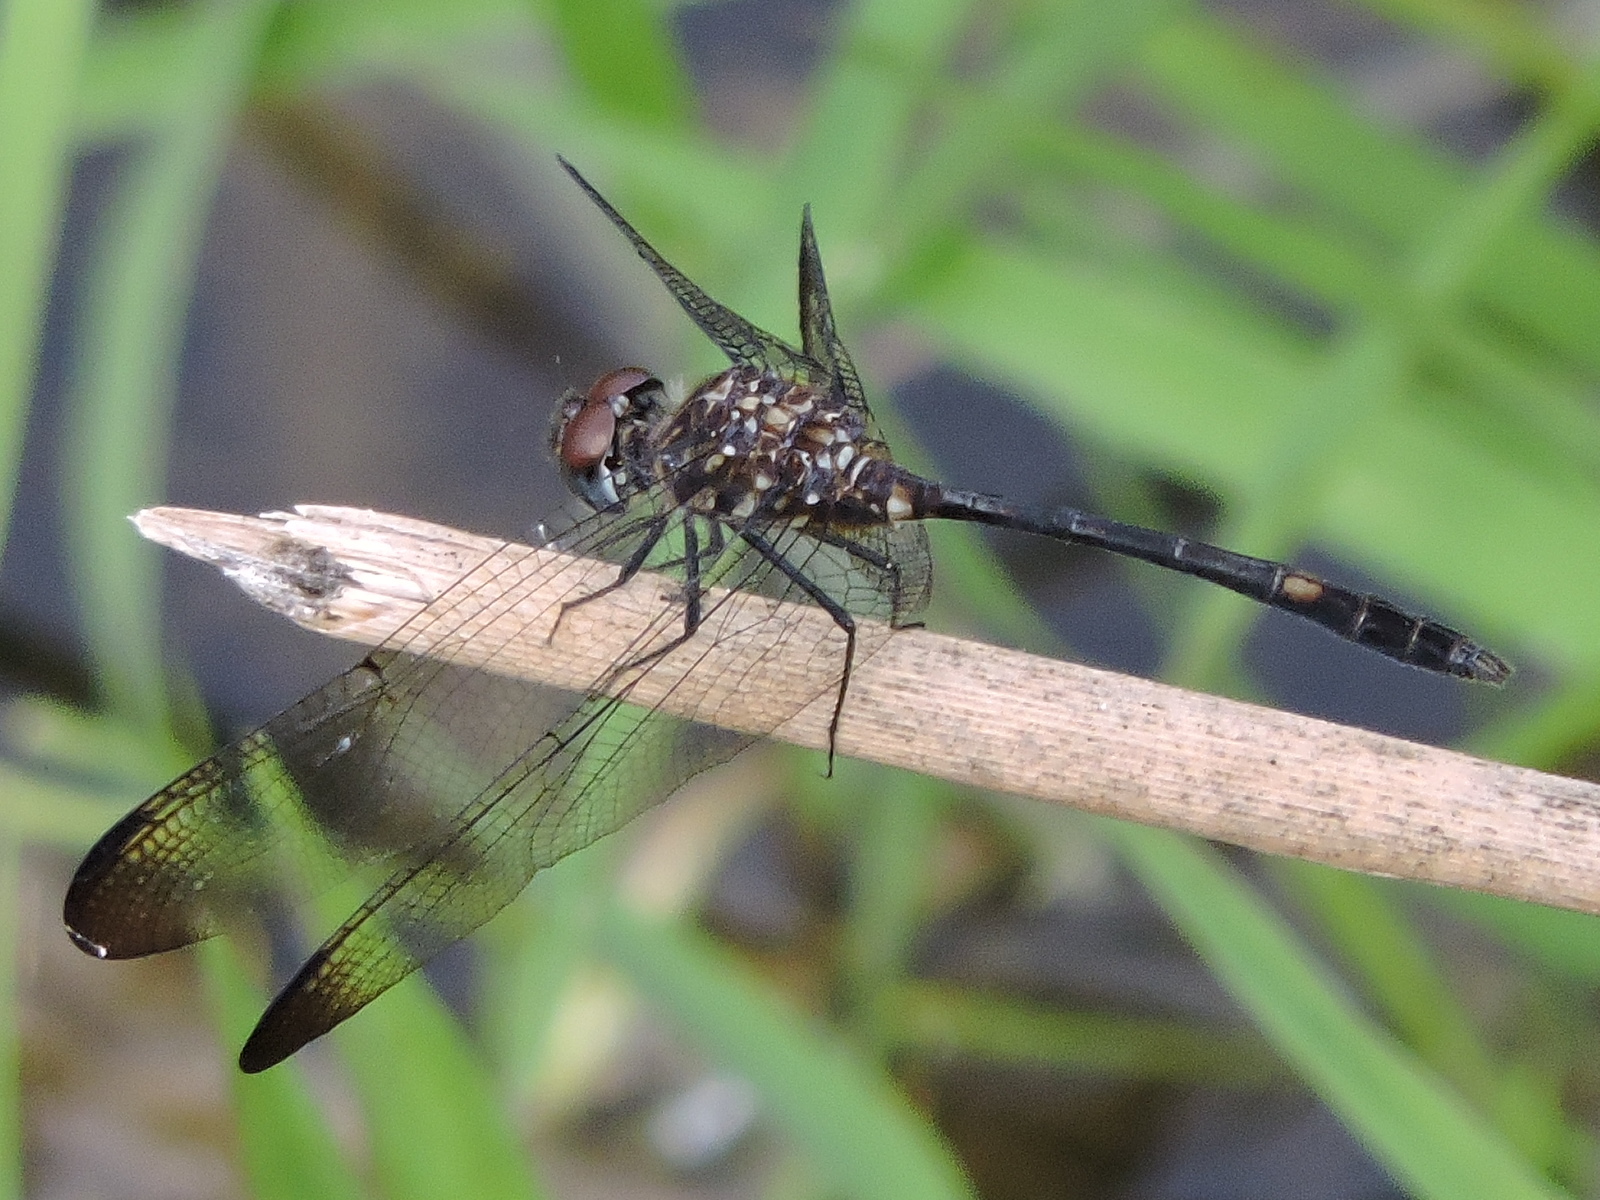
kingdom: Animalia
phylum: Arthropoda
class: Insecta
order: Odonata
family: Libellulidae
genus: Dythemis
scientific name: Dythemis velox
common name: Swift setwing
